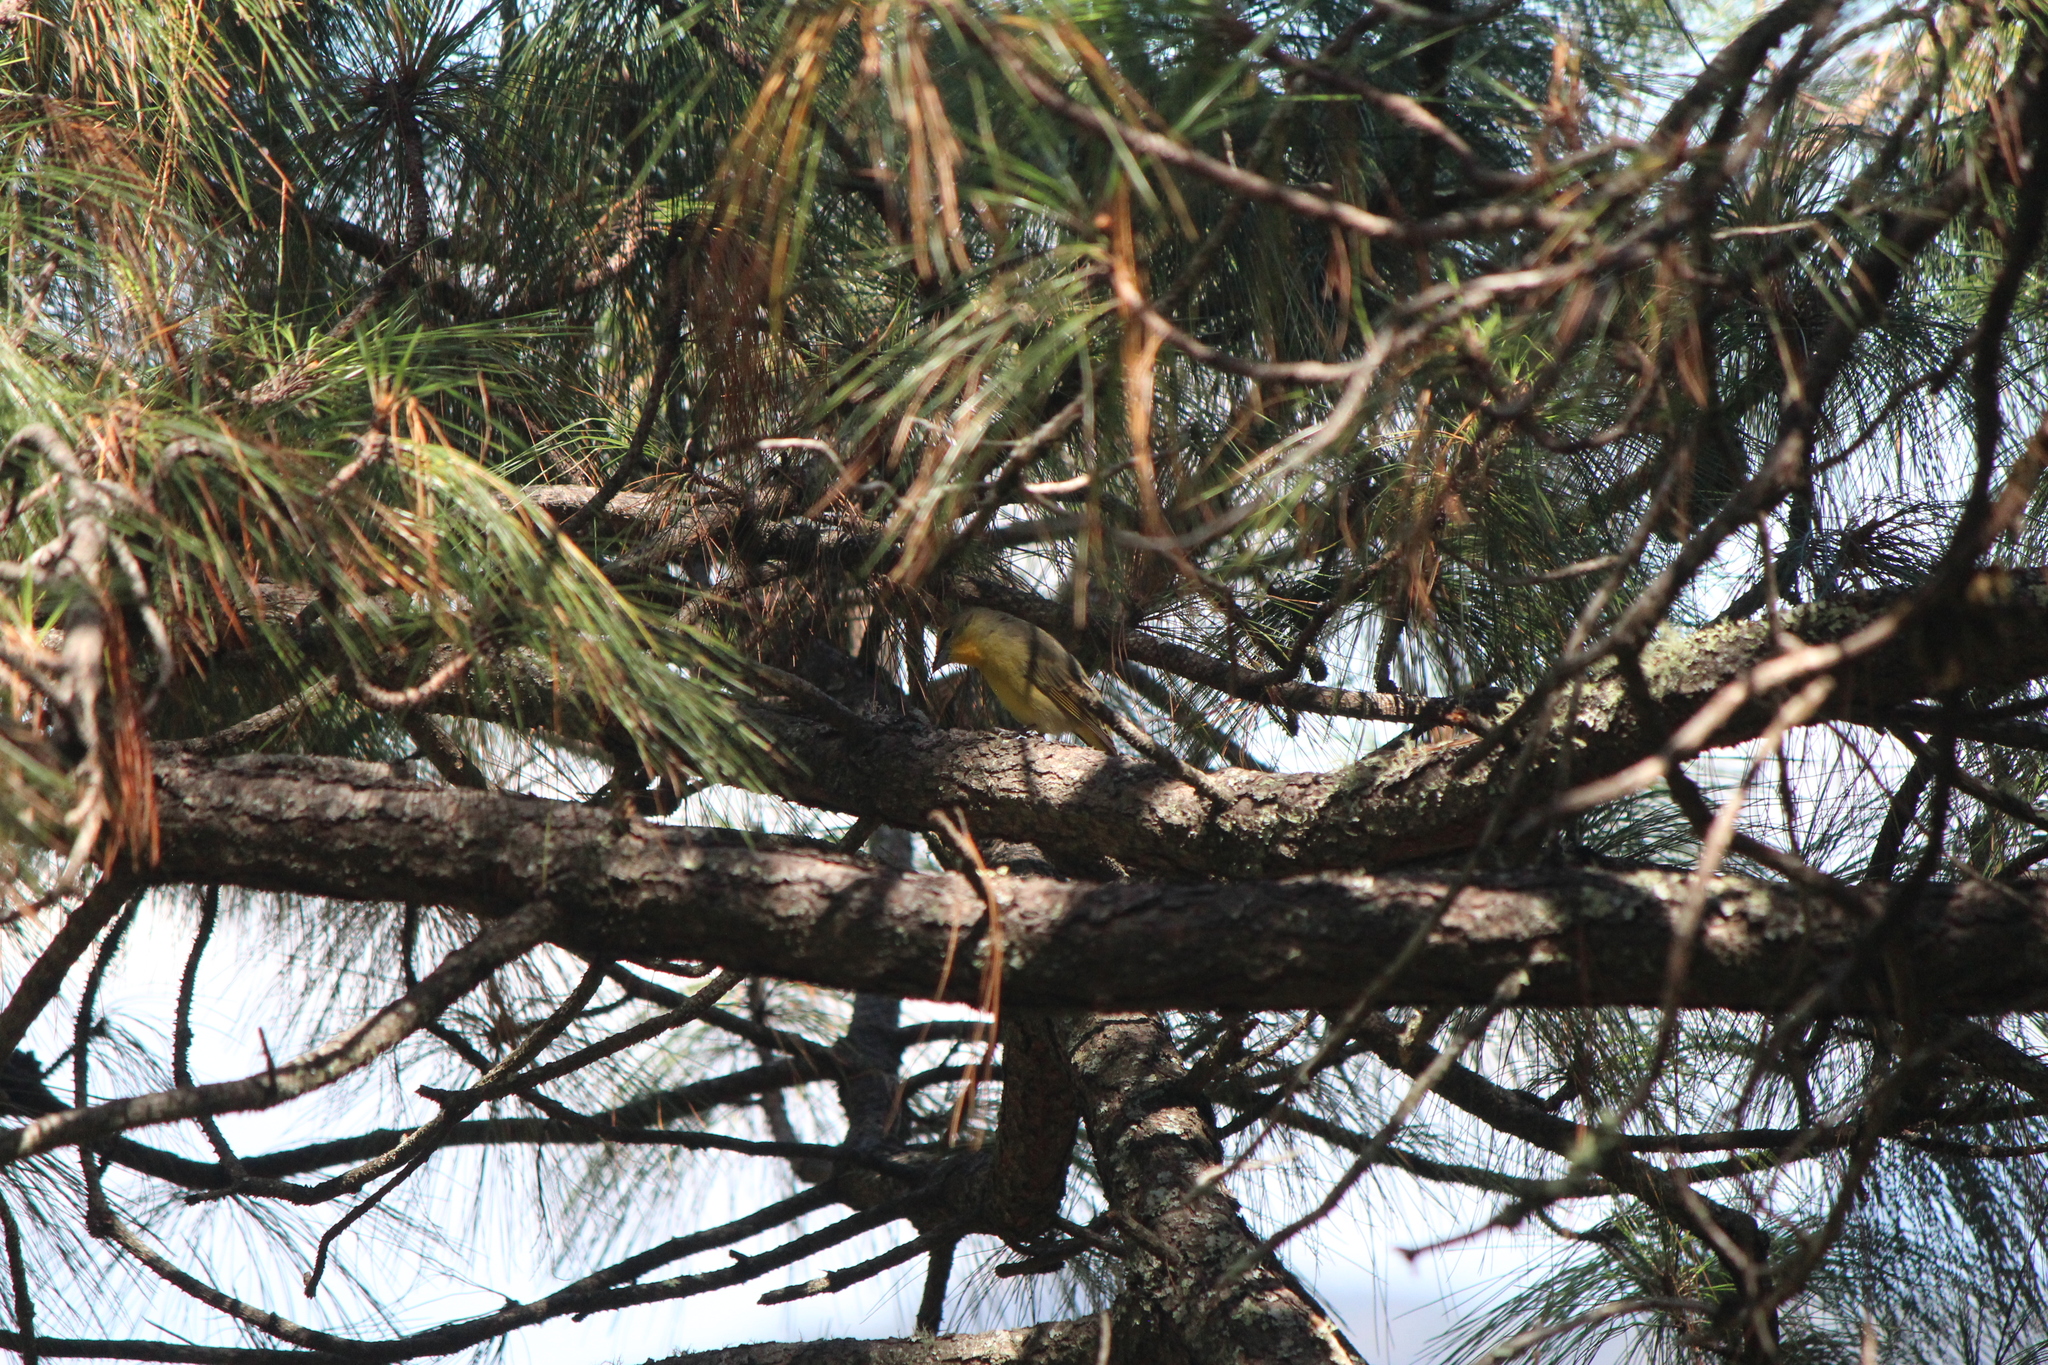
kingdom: Animalia
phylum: Chordata
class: Aves
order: Passeriformes
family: Cardinalidae
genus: Piranga
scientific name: Piranga flava
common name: Red tanager
